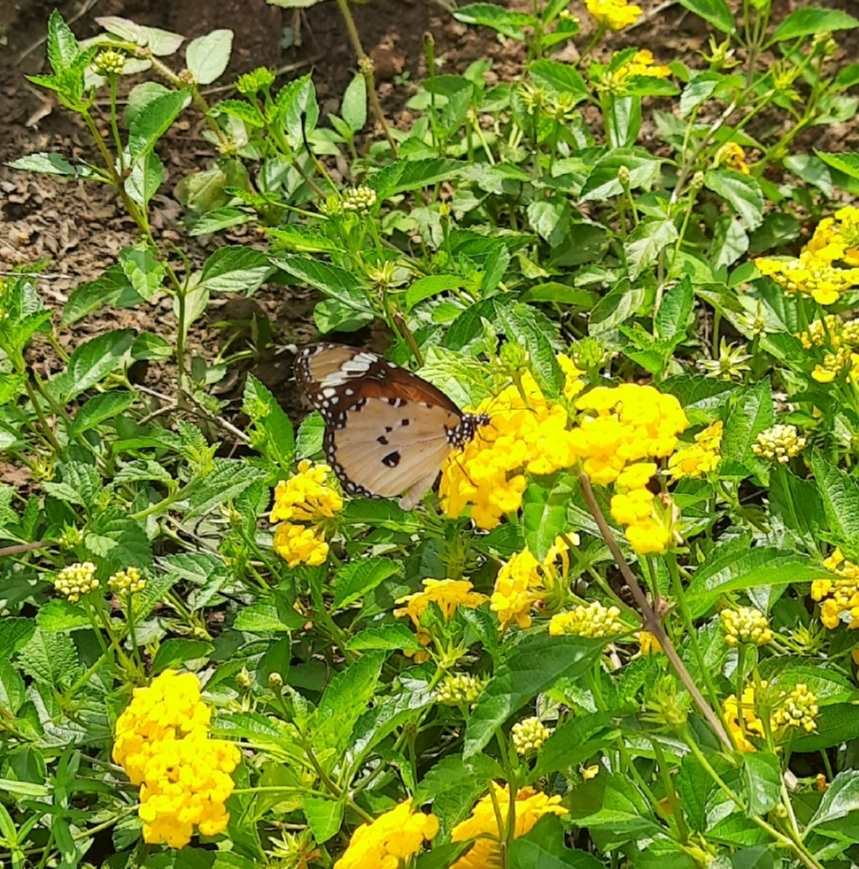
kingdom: Animalia
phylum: Arthropoda
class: Insecta
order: Lepidoptera
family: Nymphalidae
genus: Danaus
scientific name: Danaus chrysippus
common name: Plain tiger
